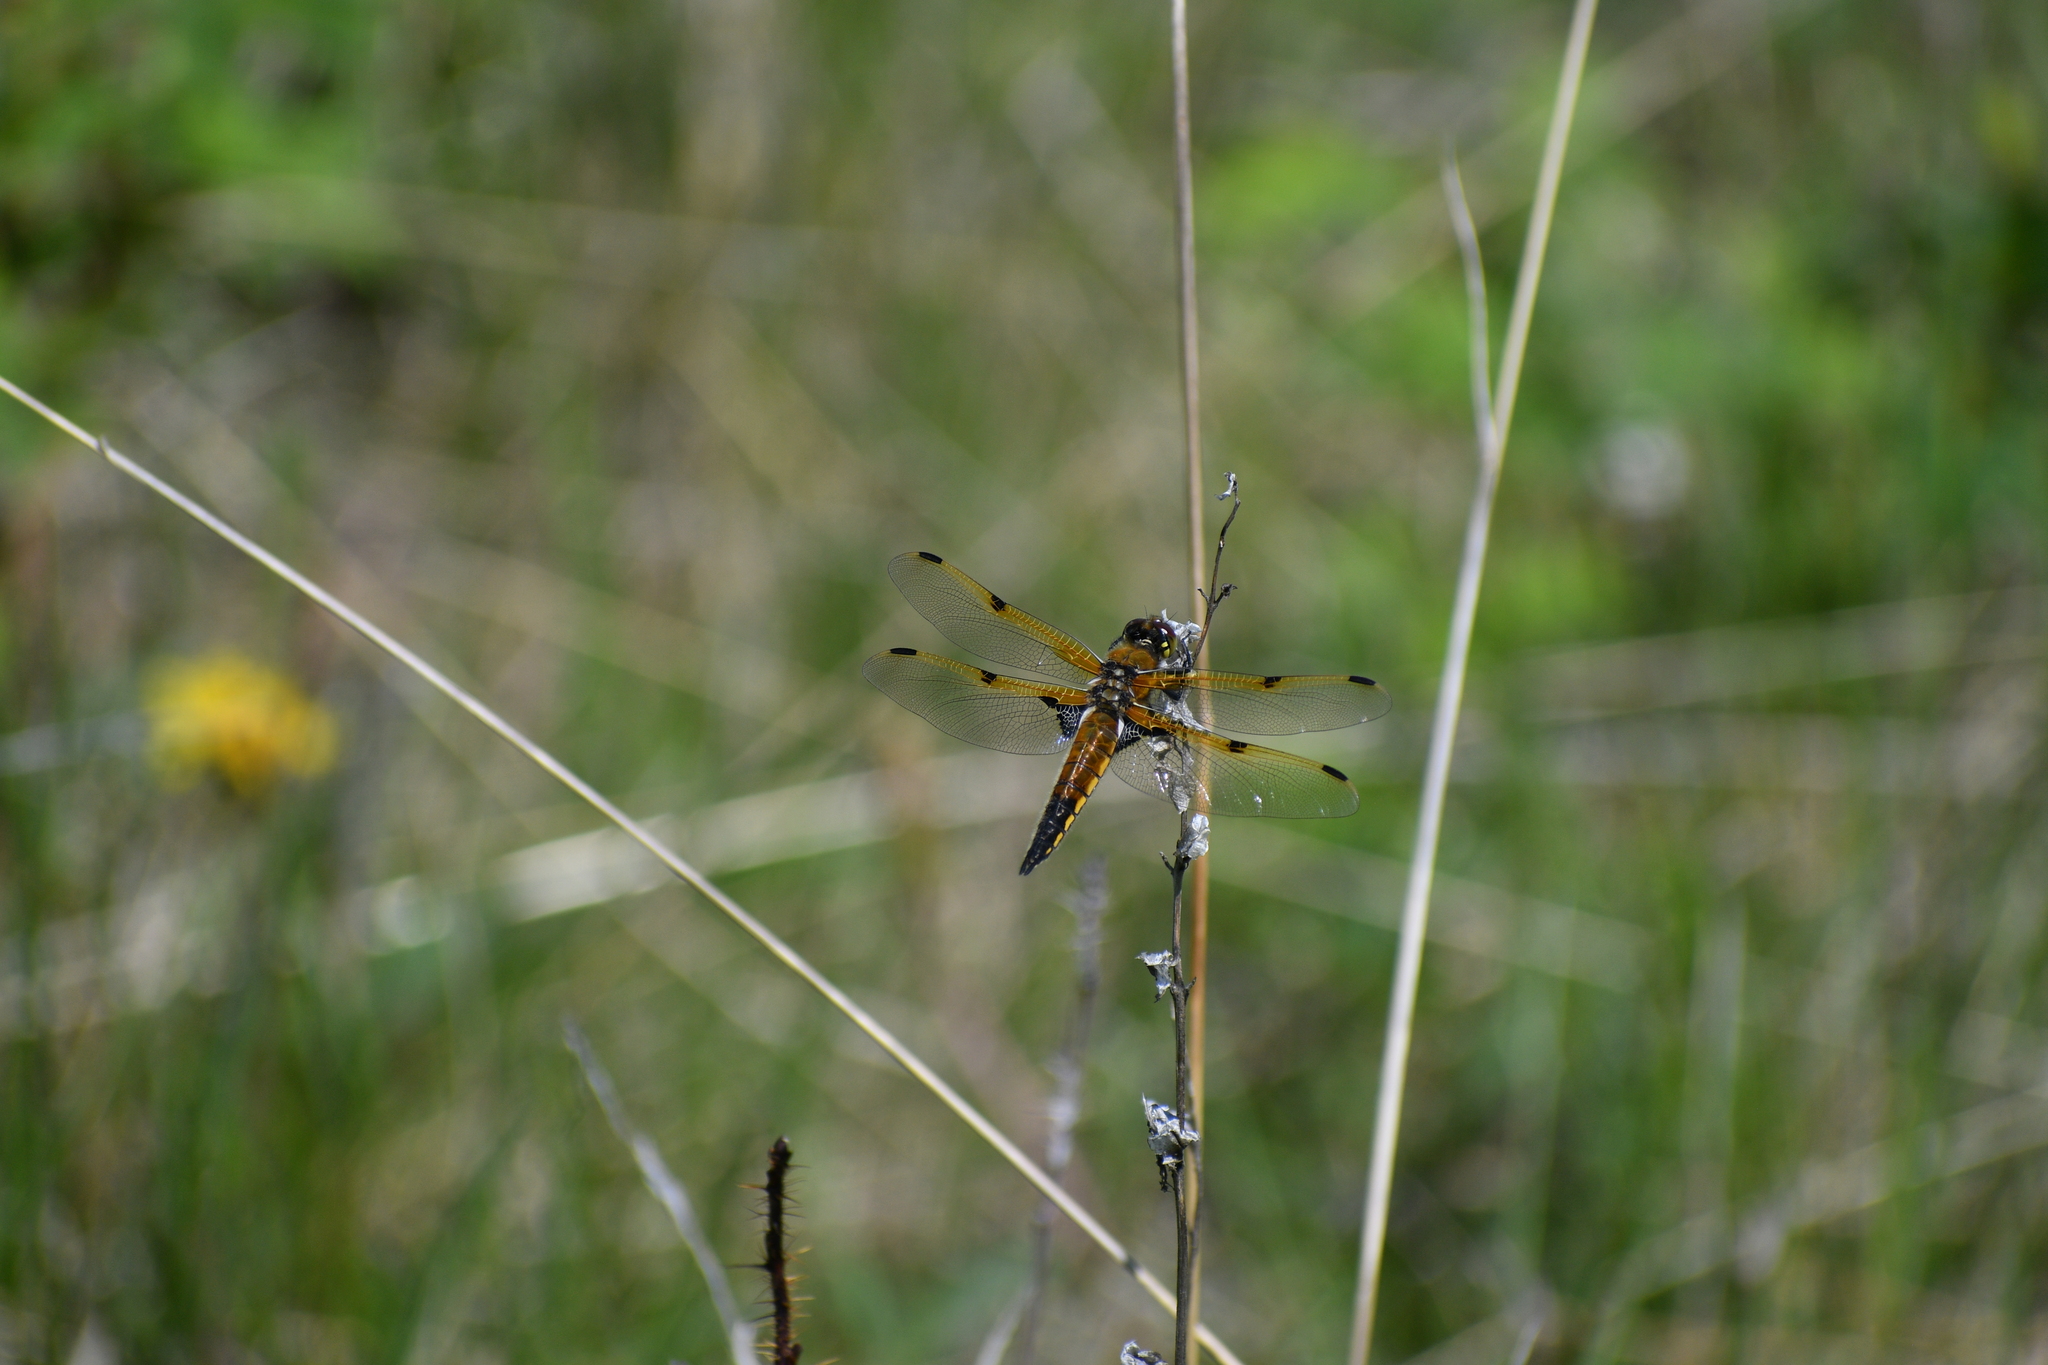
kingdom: Animalia
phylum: Arthropoda
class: Insecta
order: Odonata
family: Libellulidae
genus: Libellula
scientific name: Libellula quadrimaculata
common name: Four-spotted chaser
